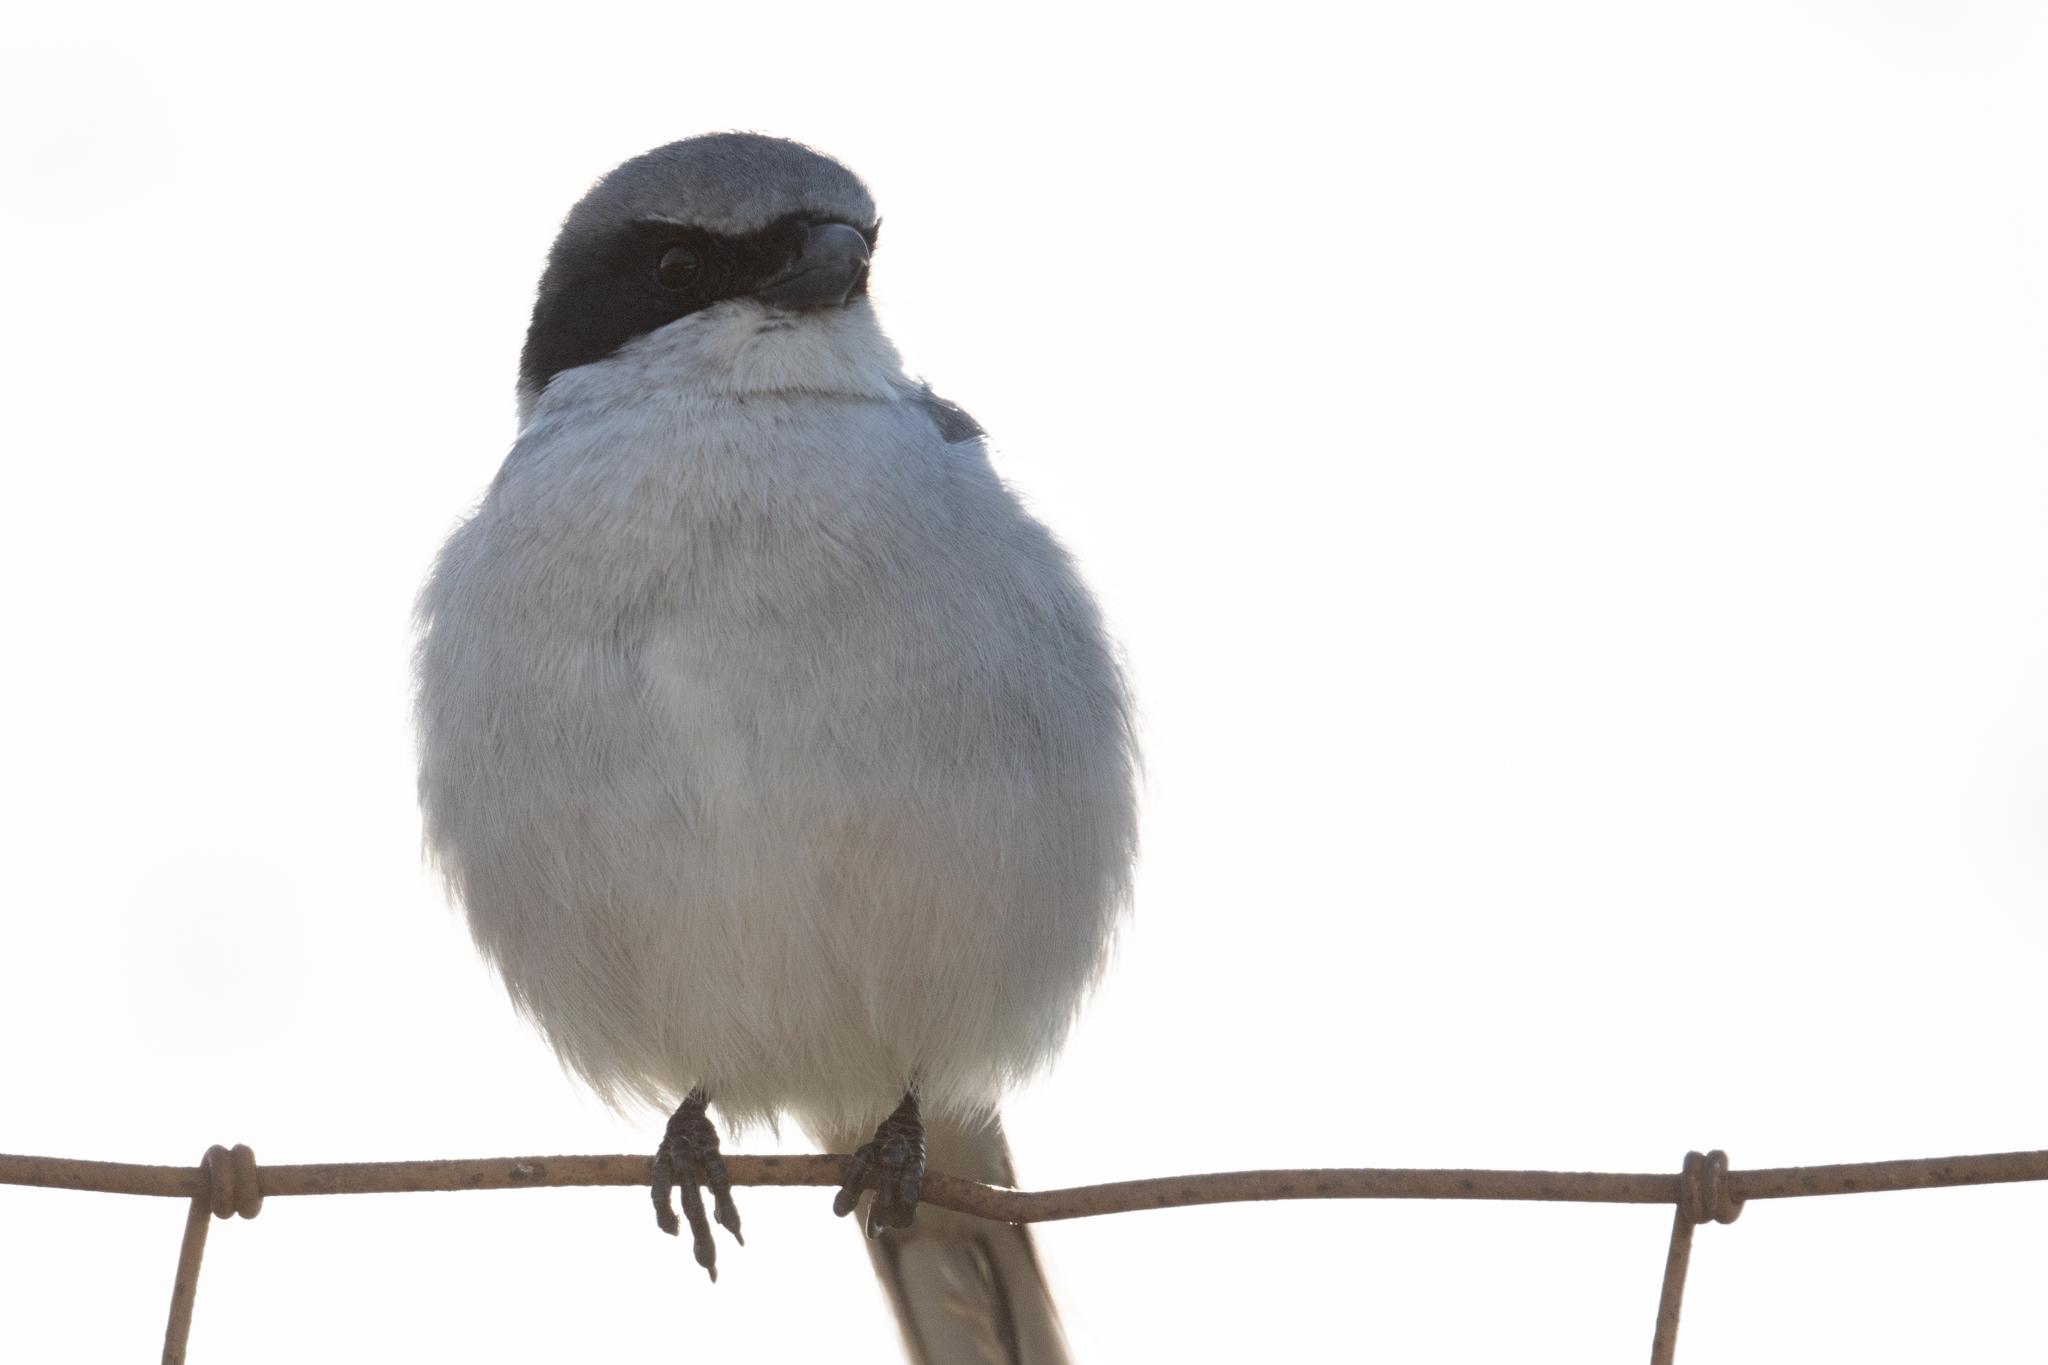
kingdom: Animalia
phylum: Chordata
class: Aves
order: Passeriformes
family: Laniidae
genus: Lanius
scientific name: Lanius ludovicianus
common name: Loggerhead shrike
